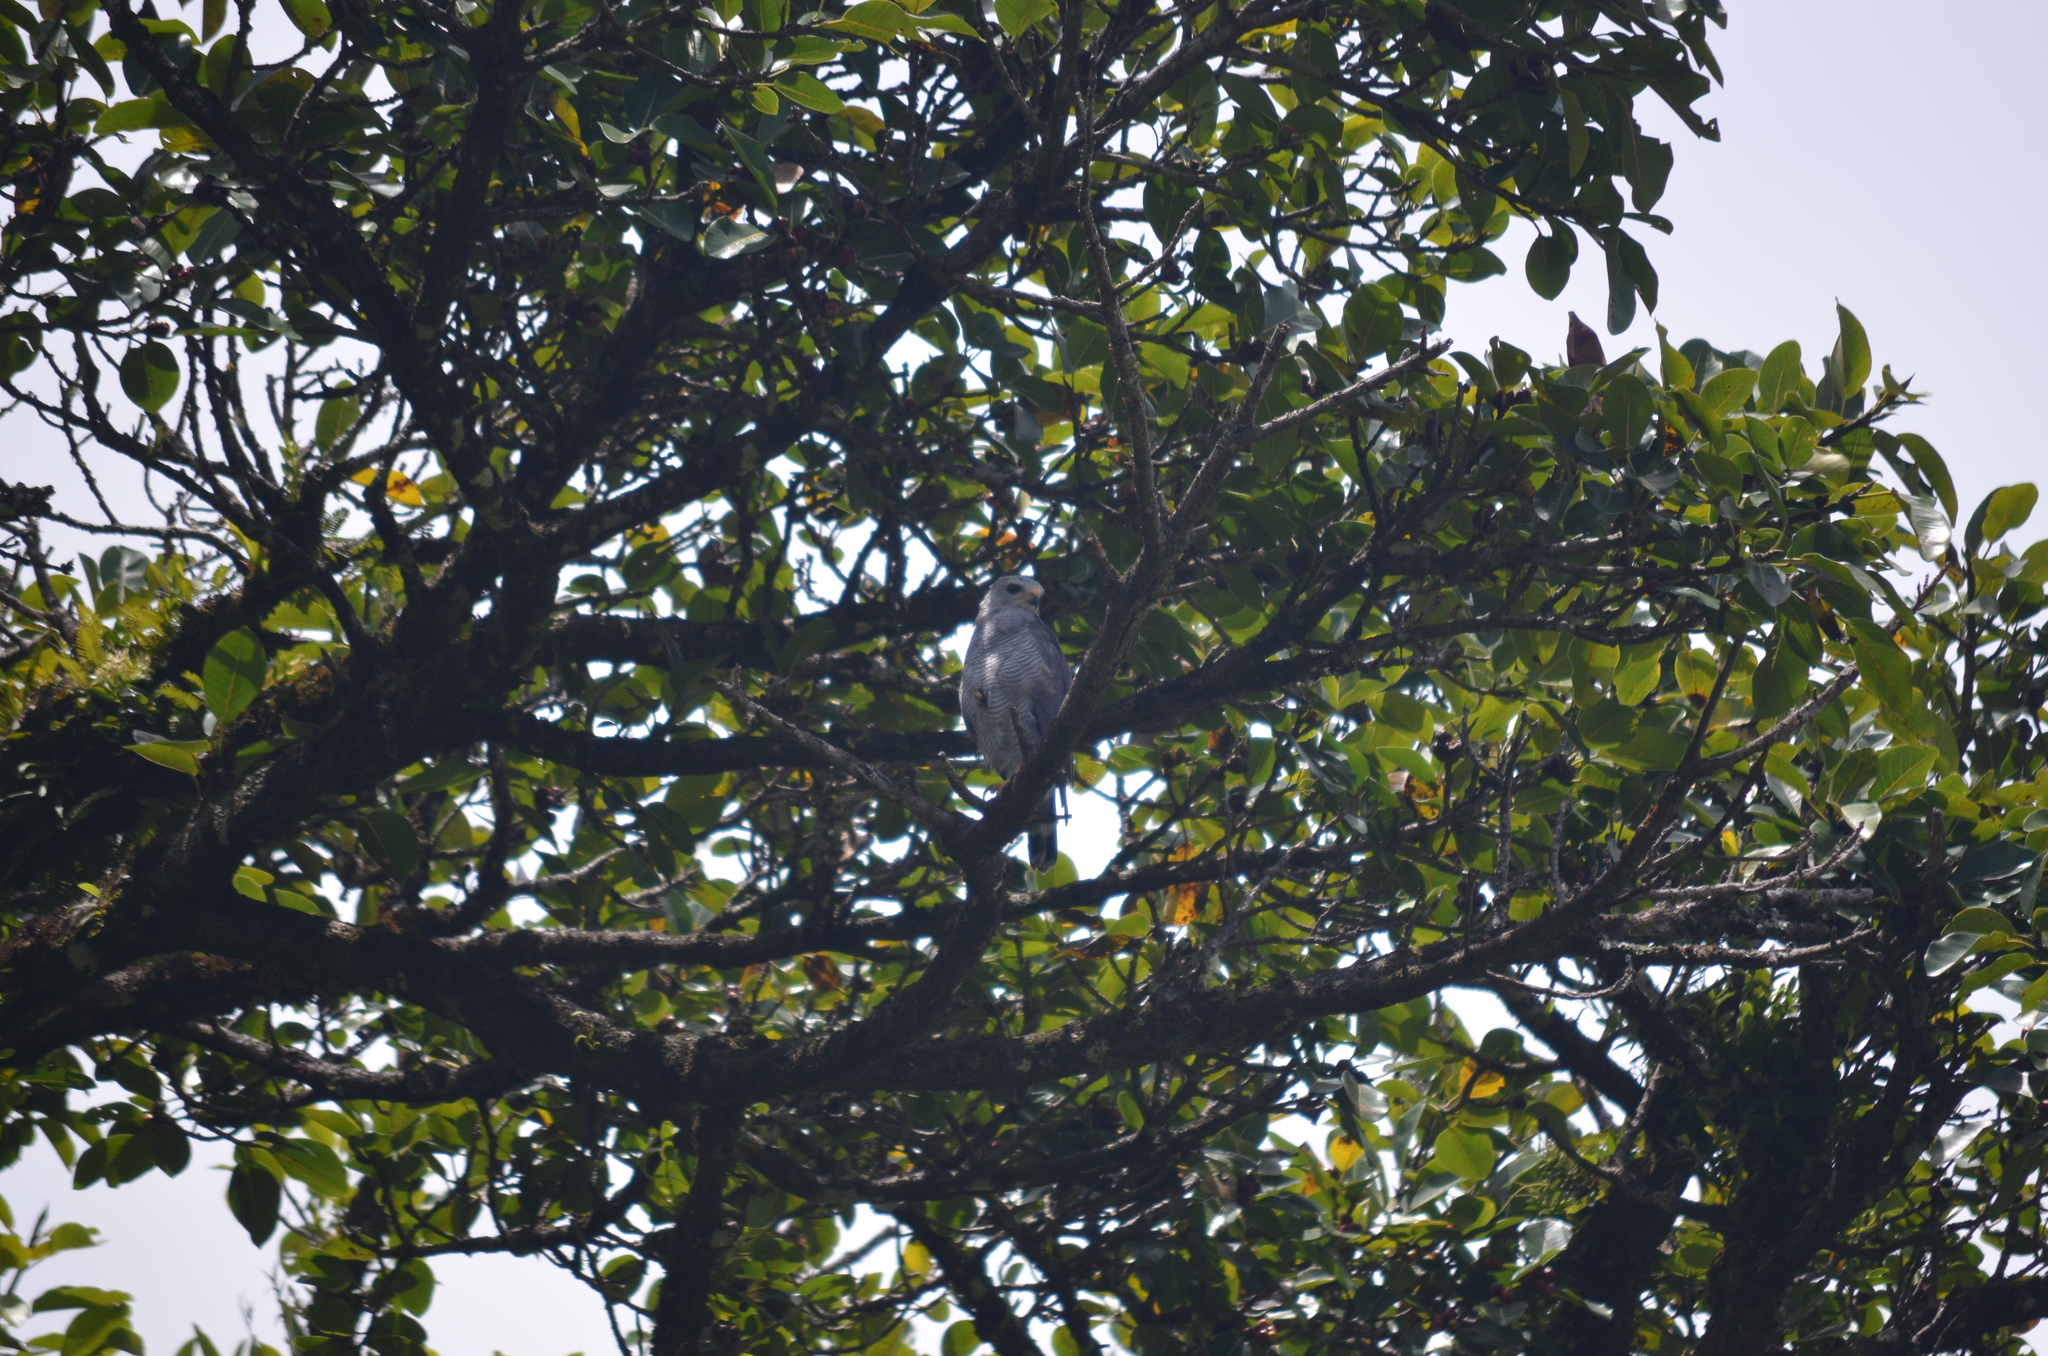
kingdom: Animalia
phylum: Chordata
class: Aves
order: Accipitriformes
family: Accipitridae
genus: Buteo
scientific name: Buteo nitidus
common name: Grey-lined hawk
